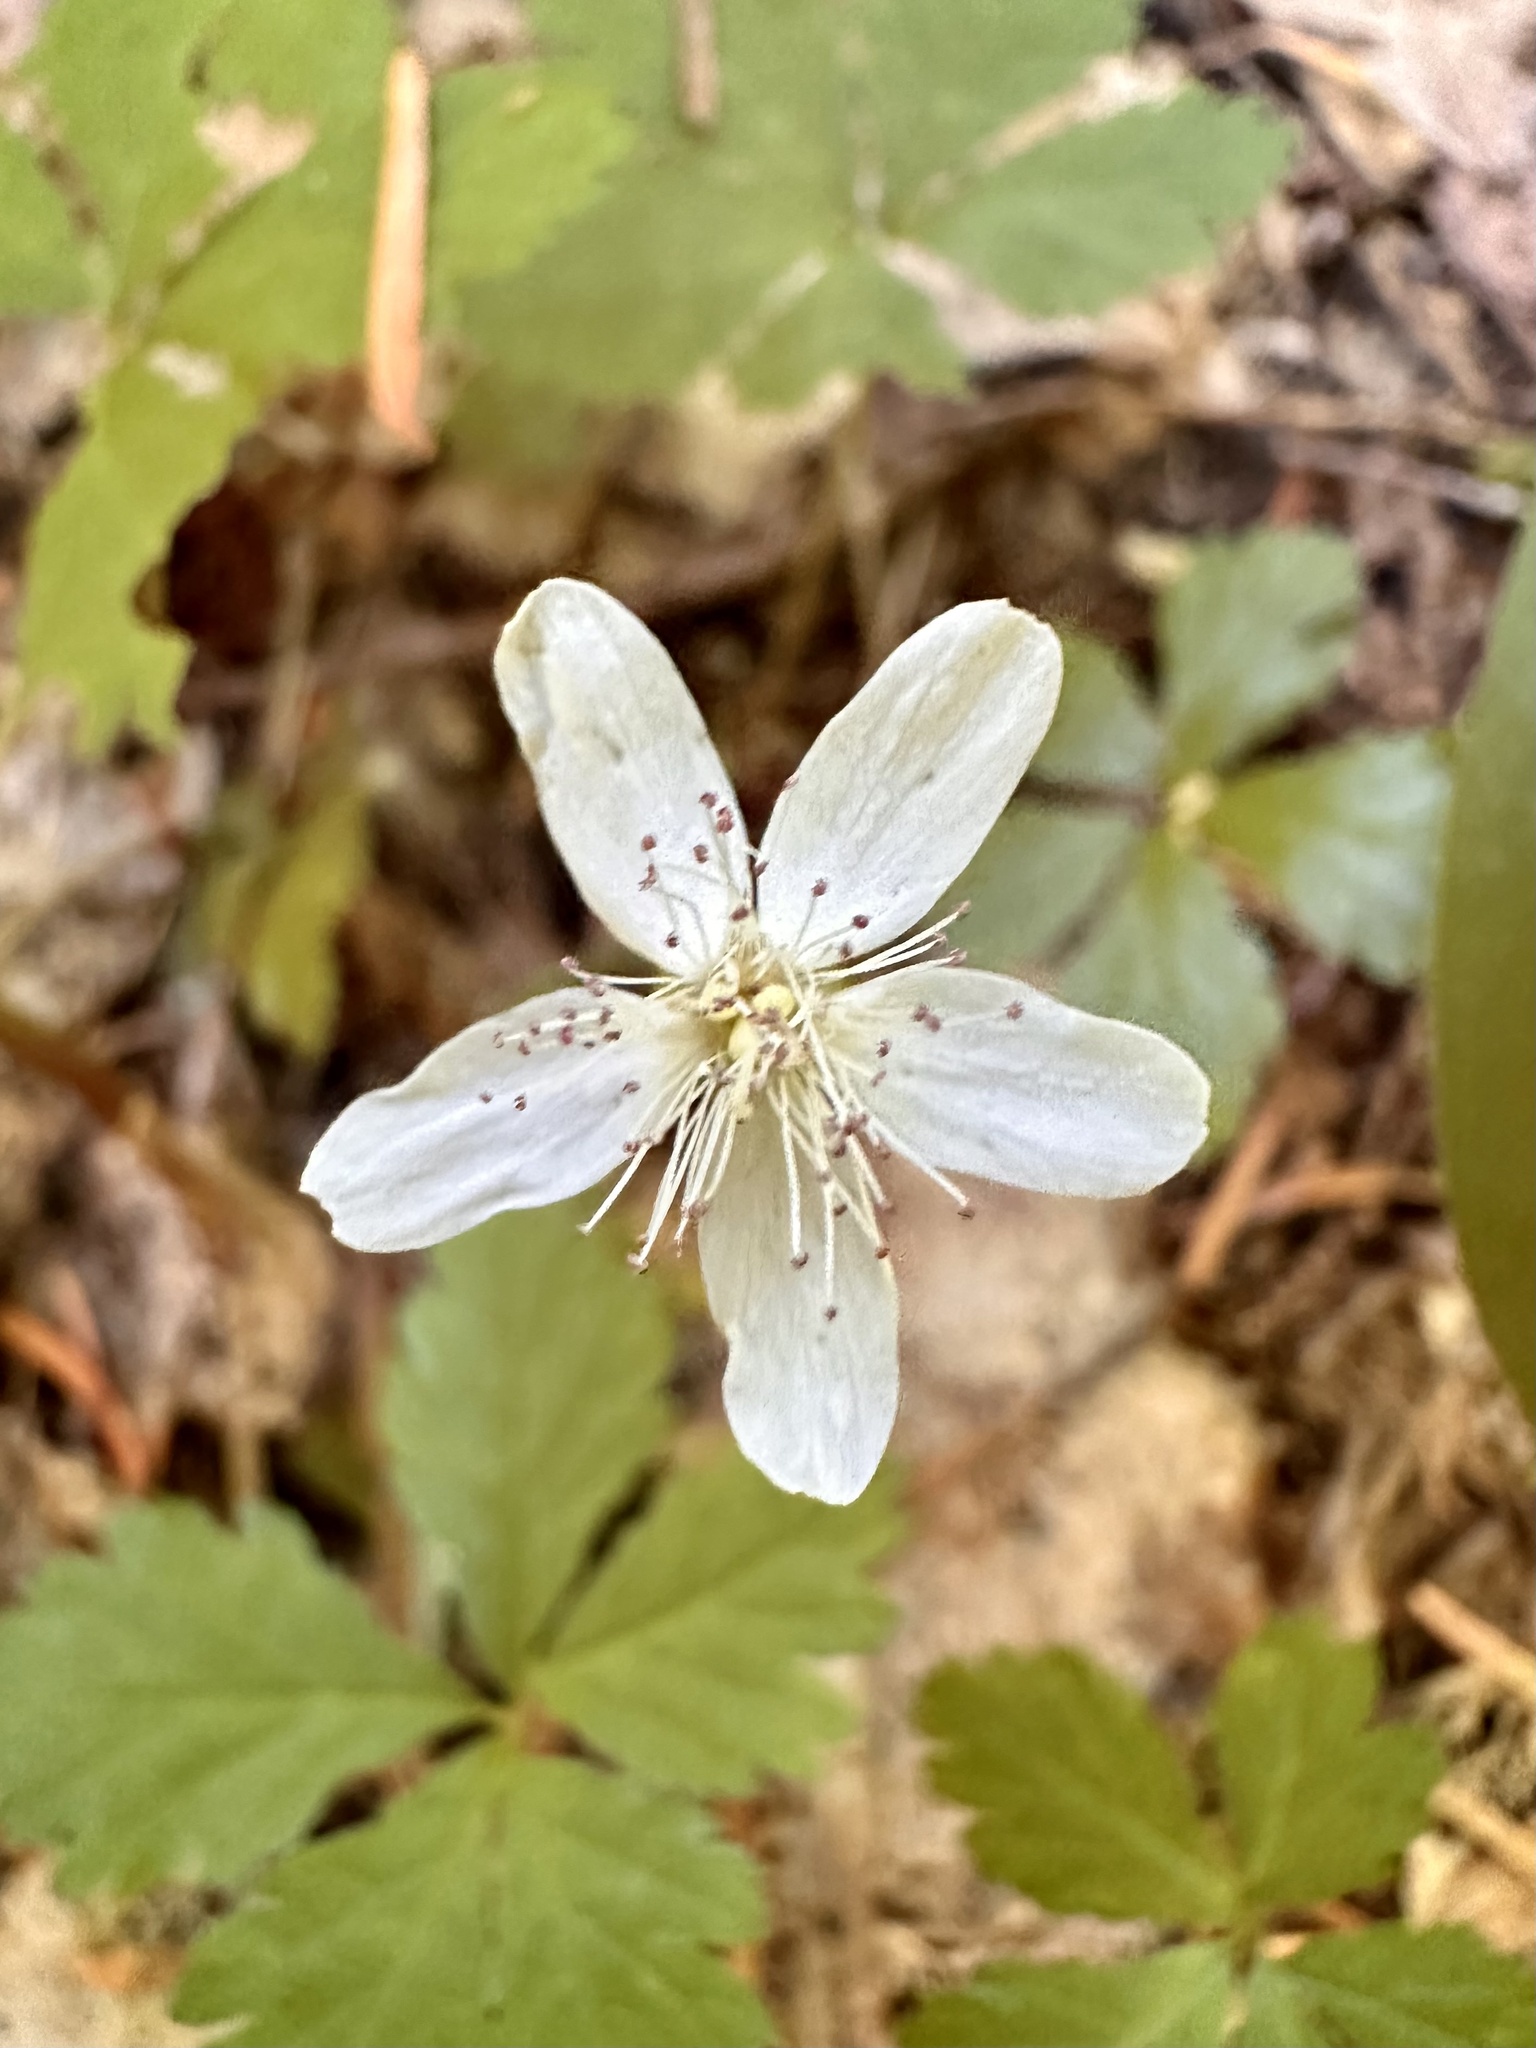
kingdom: Plantae
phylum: Tracheophyta
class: Magnoliopsida
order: Rosales
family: Rosaceae
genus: Rubus
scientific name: Rubus pedatus
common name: Creeping raspberry
